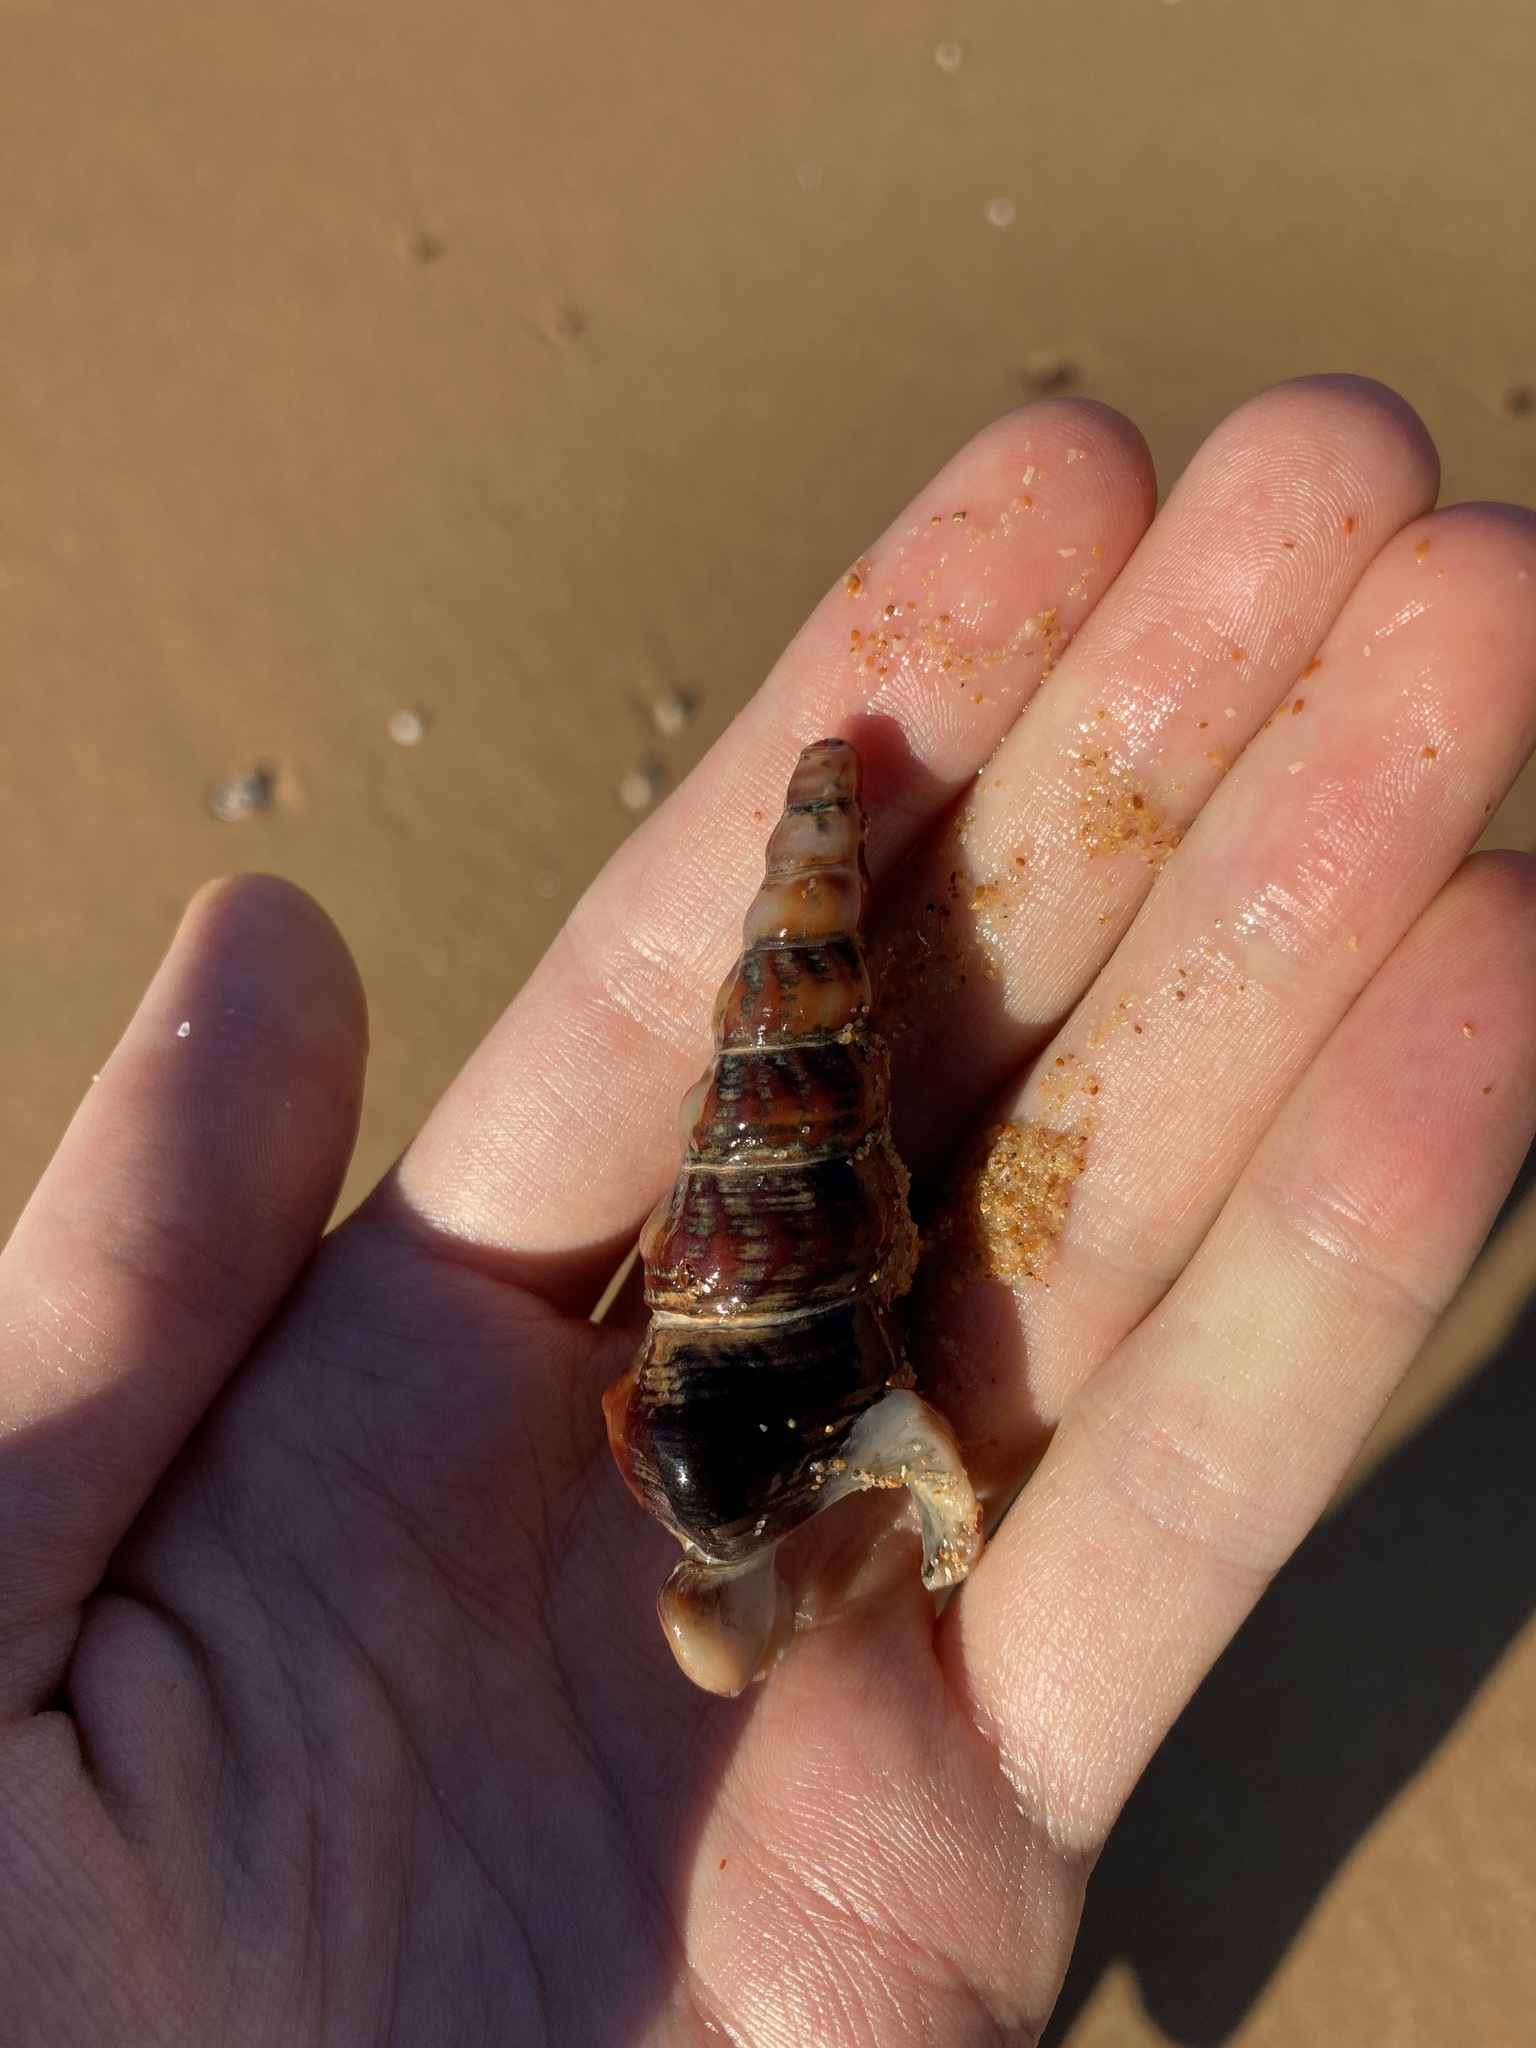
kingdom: Animalia
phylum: Mollusca
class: Gastropoda
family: Batillariidae
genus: Pyrazus
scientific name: Pyrazus ebeninus
